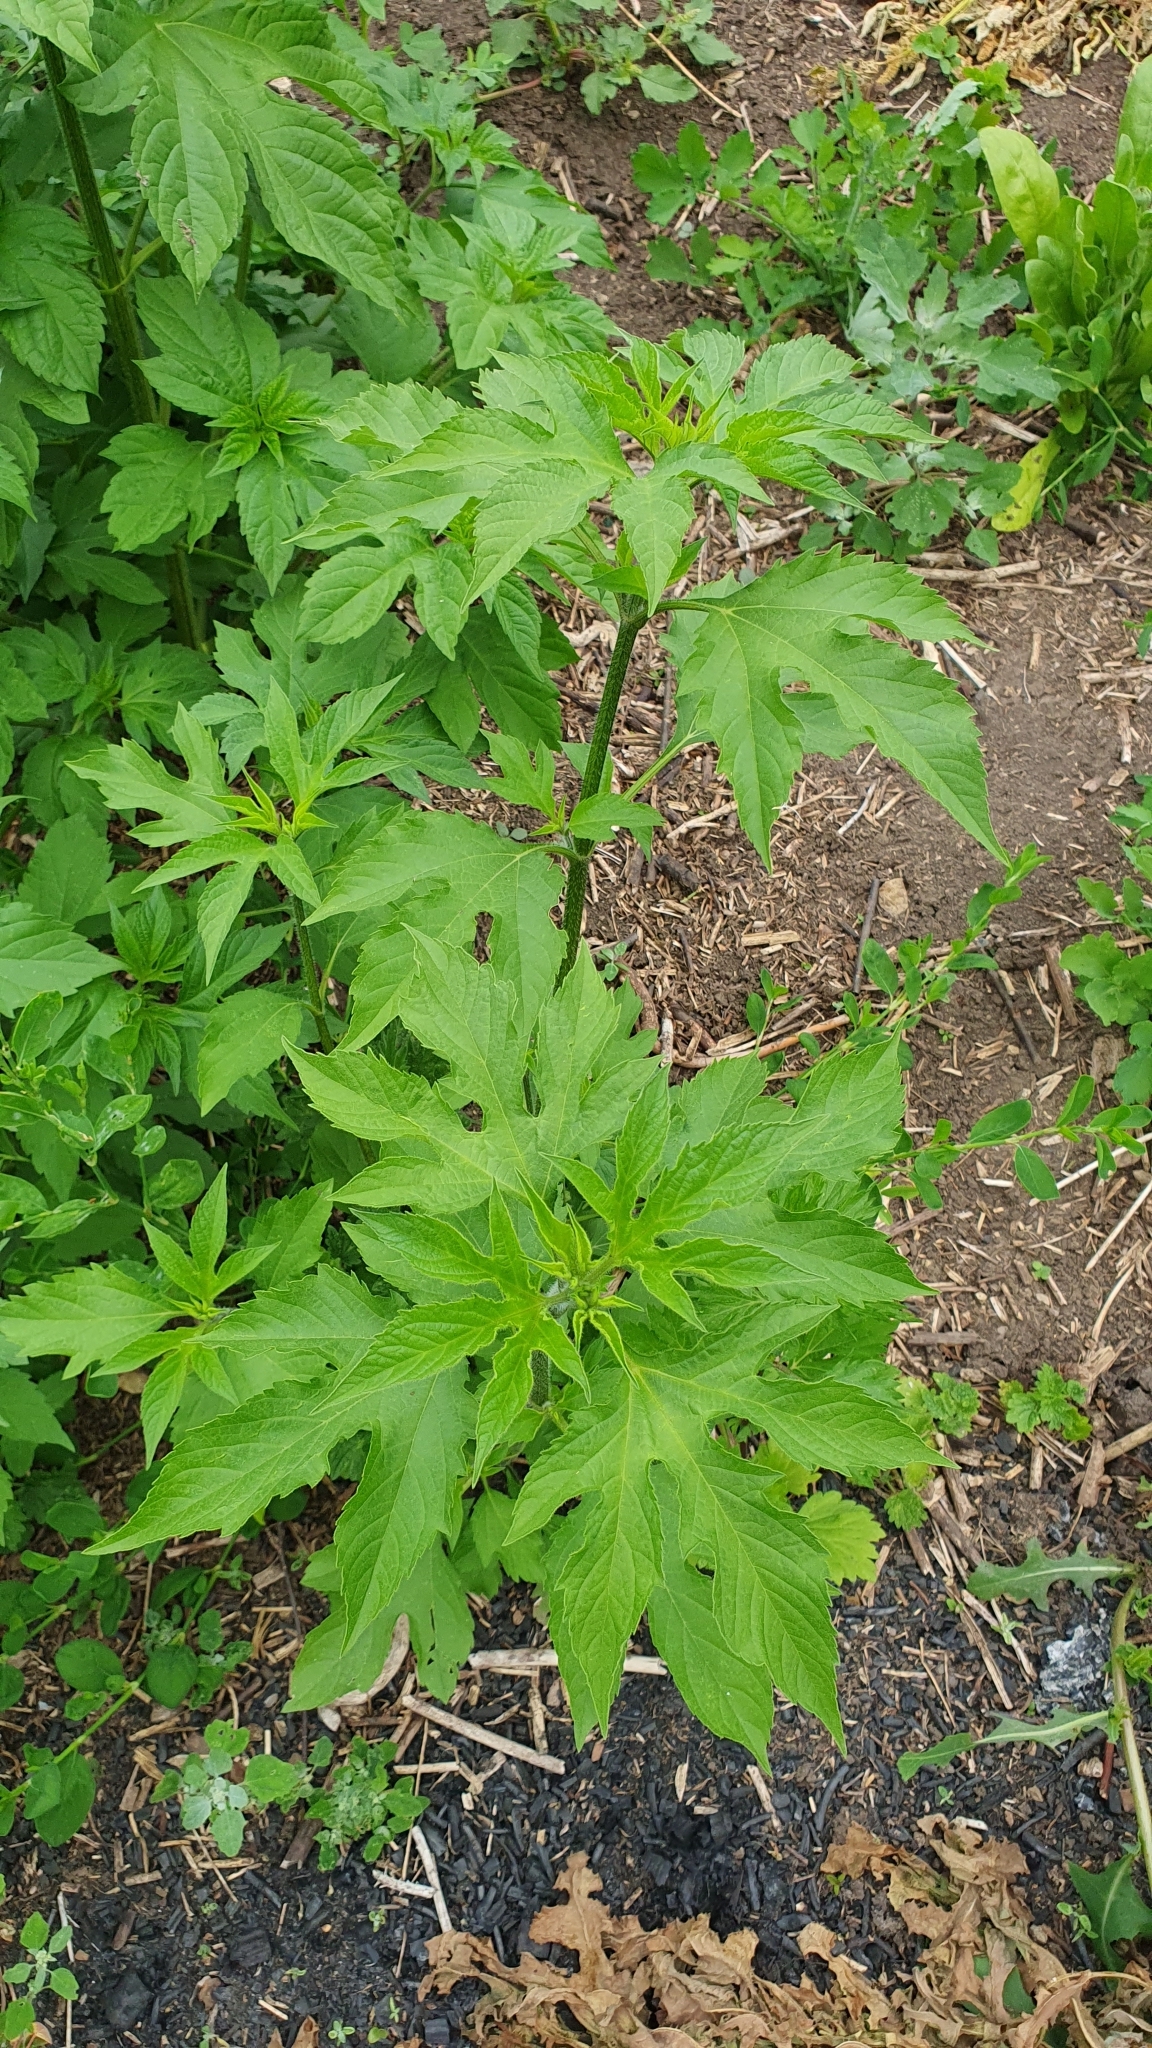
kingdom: Plantae
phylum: Tracheophyta
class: Magnoliopsida
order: Asterales
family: Asteraceae
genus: Ambrosia
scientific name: Ambrosia trifida
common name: Giant ragweed
